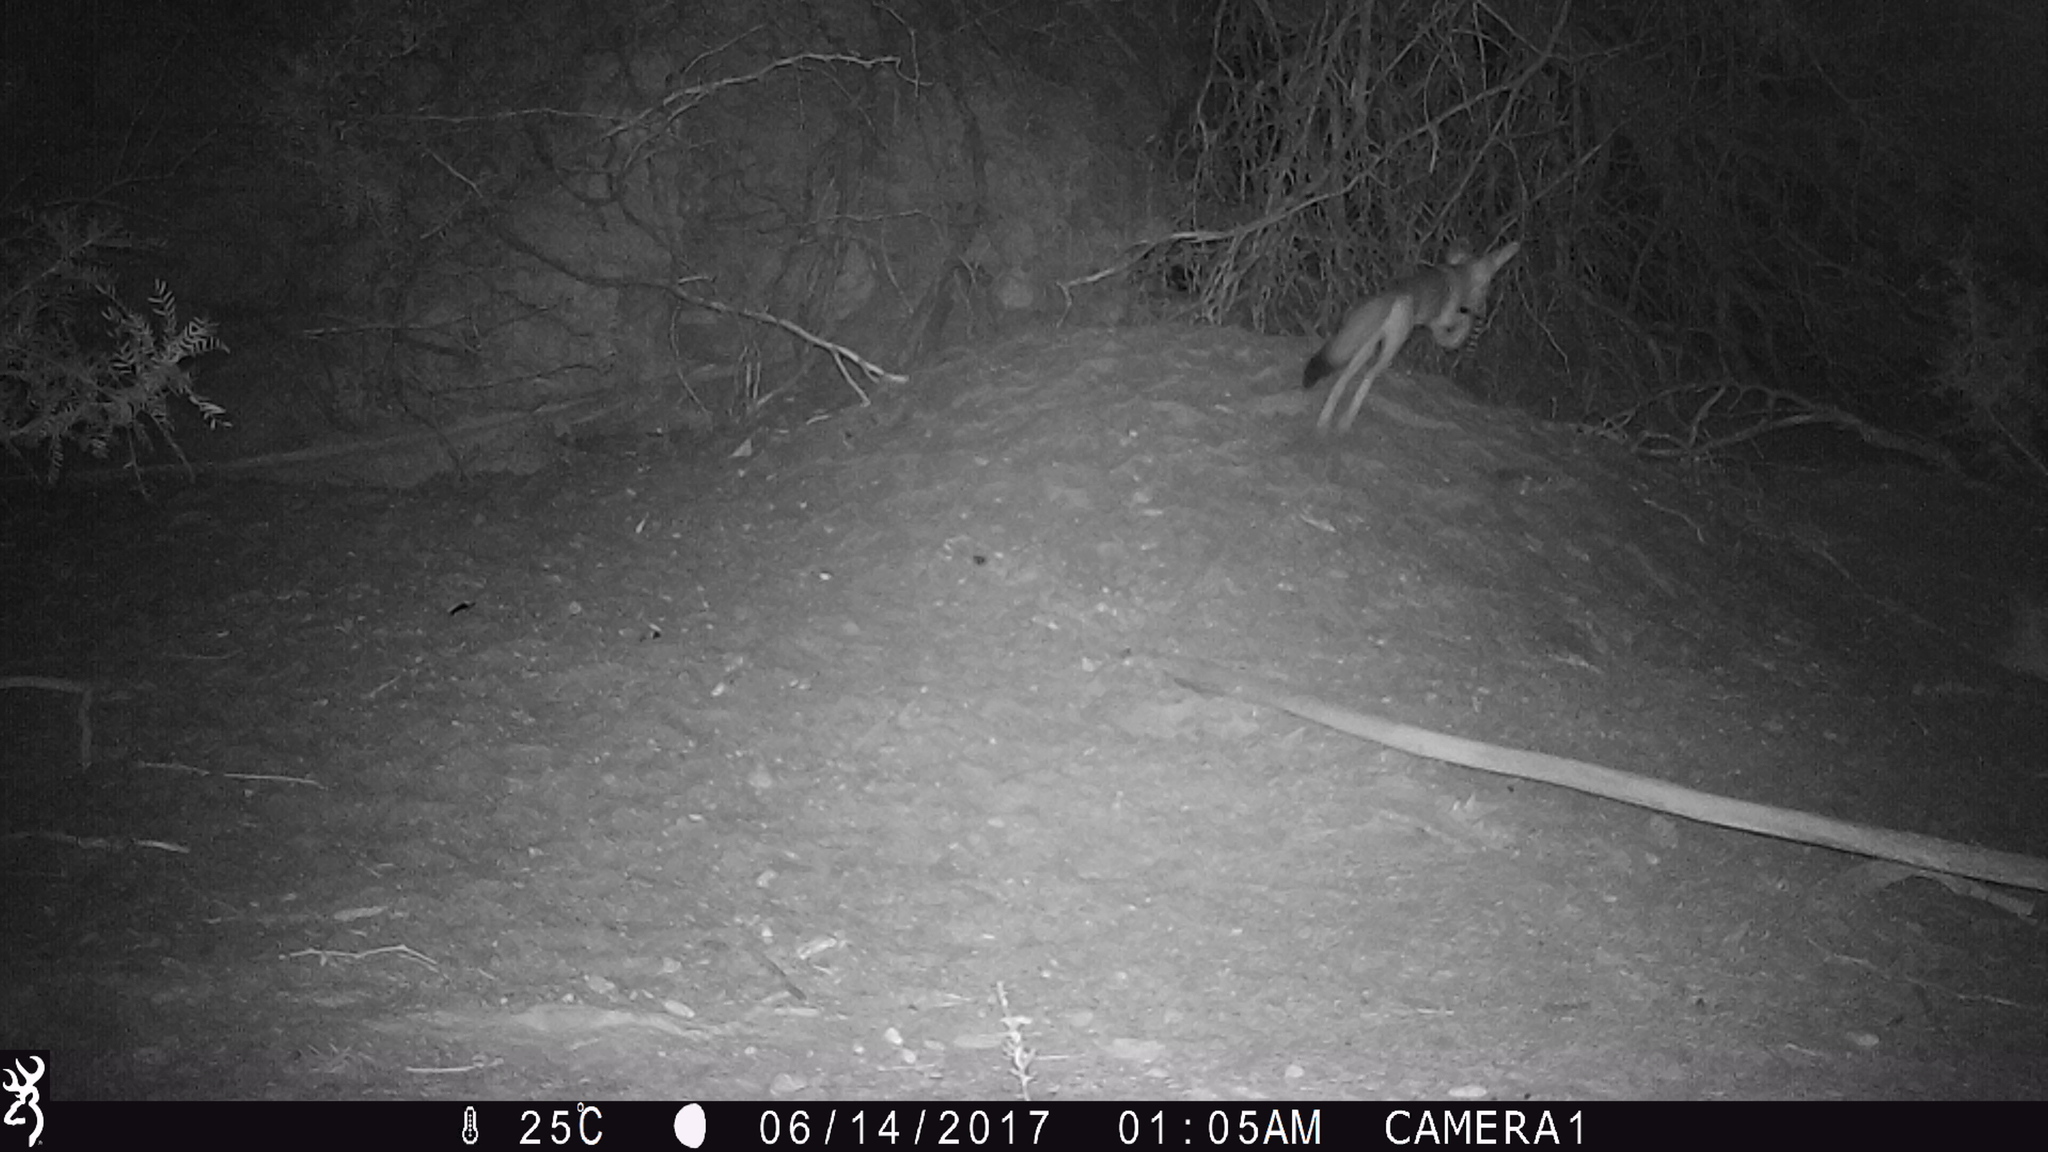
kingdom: Animalia
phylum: Chordata
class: Mammalia
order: Carnivora
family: Canidae
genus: Vulpes
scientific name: Vulpes macrotis
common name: Kit fox
